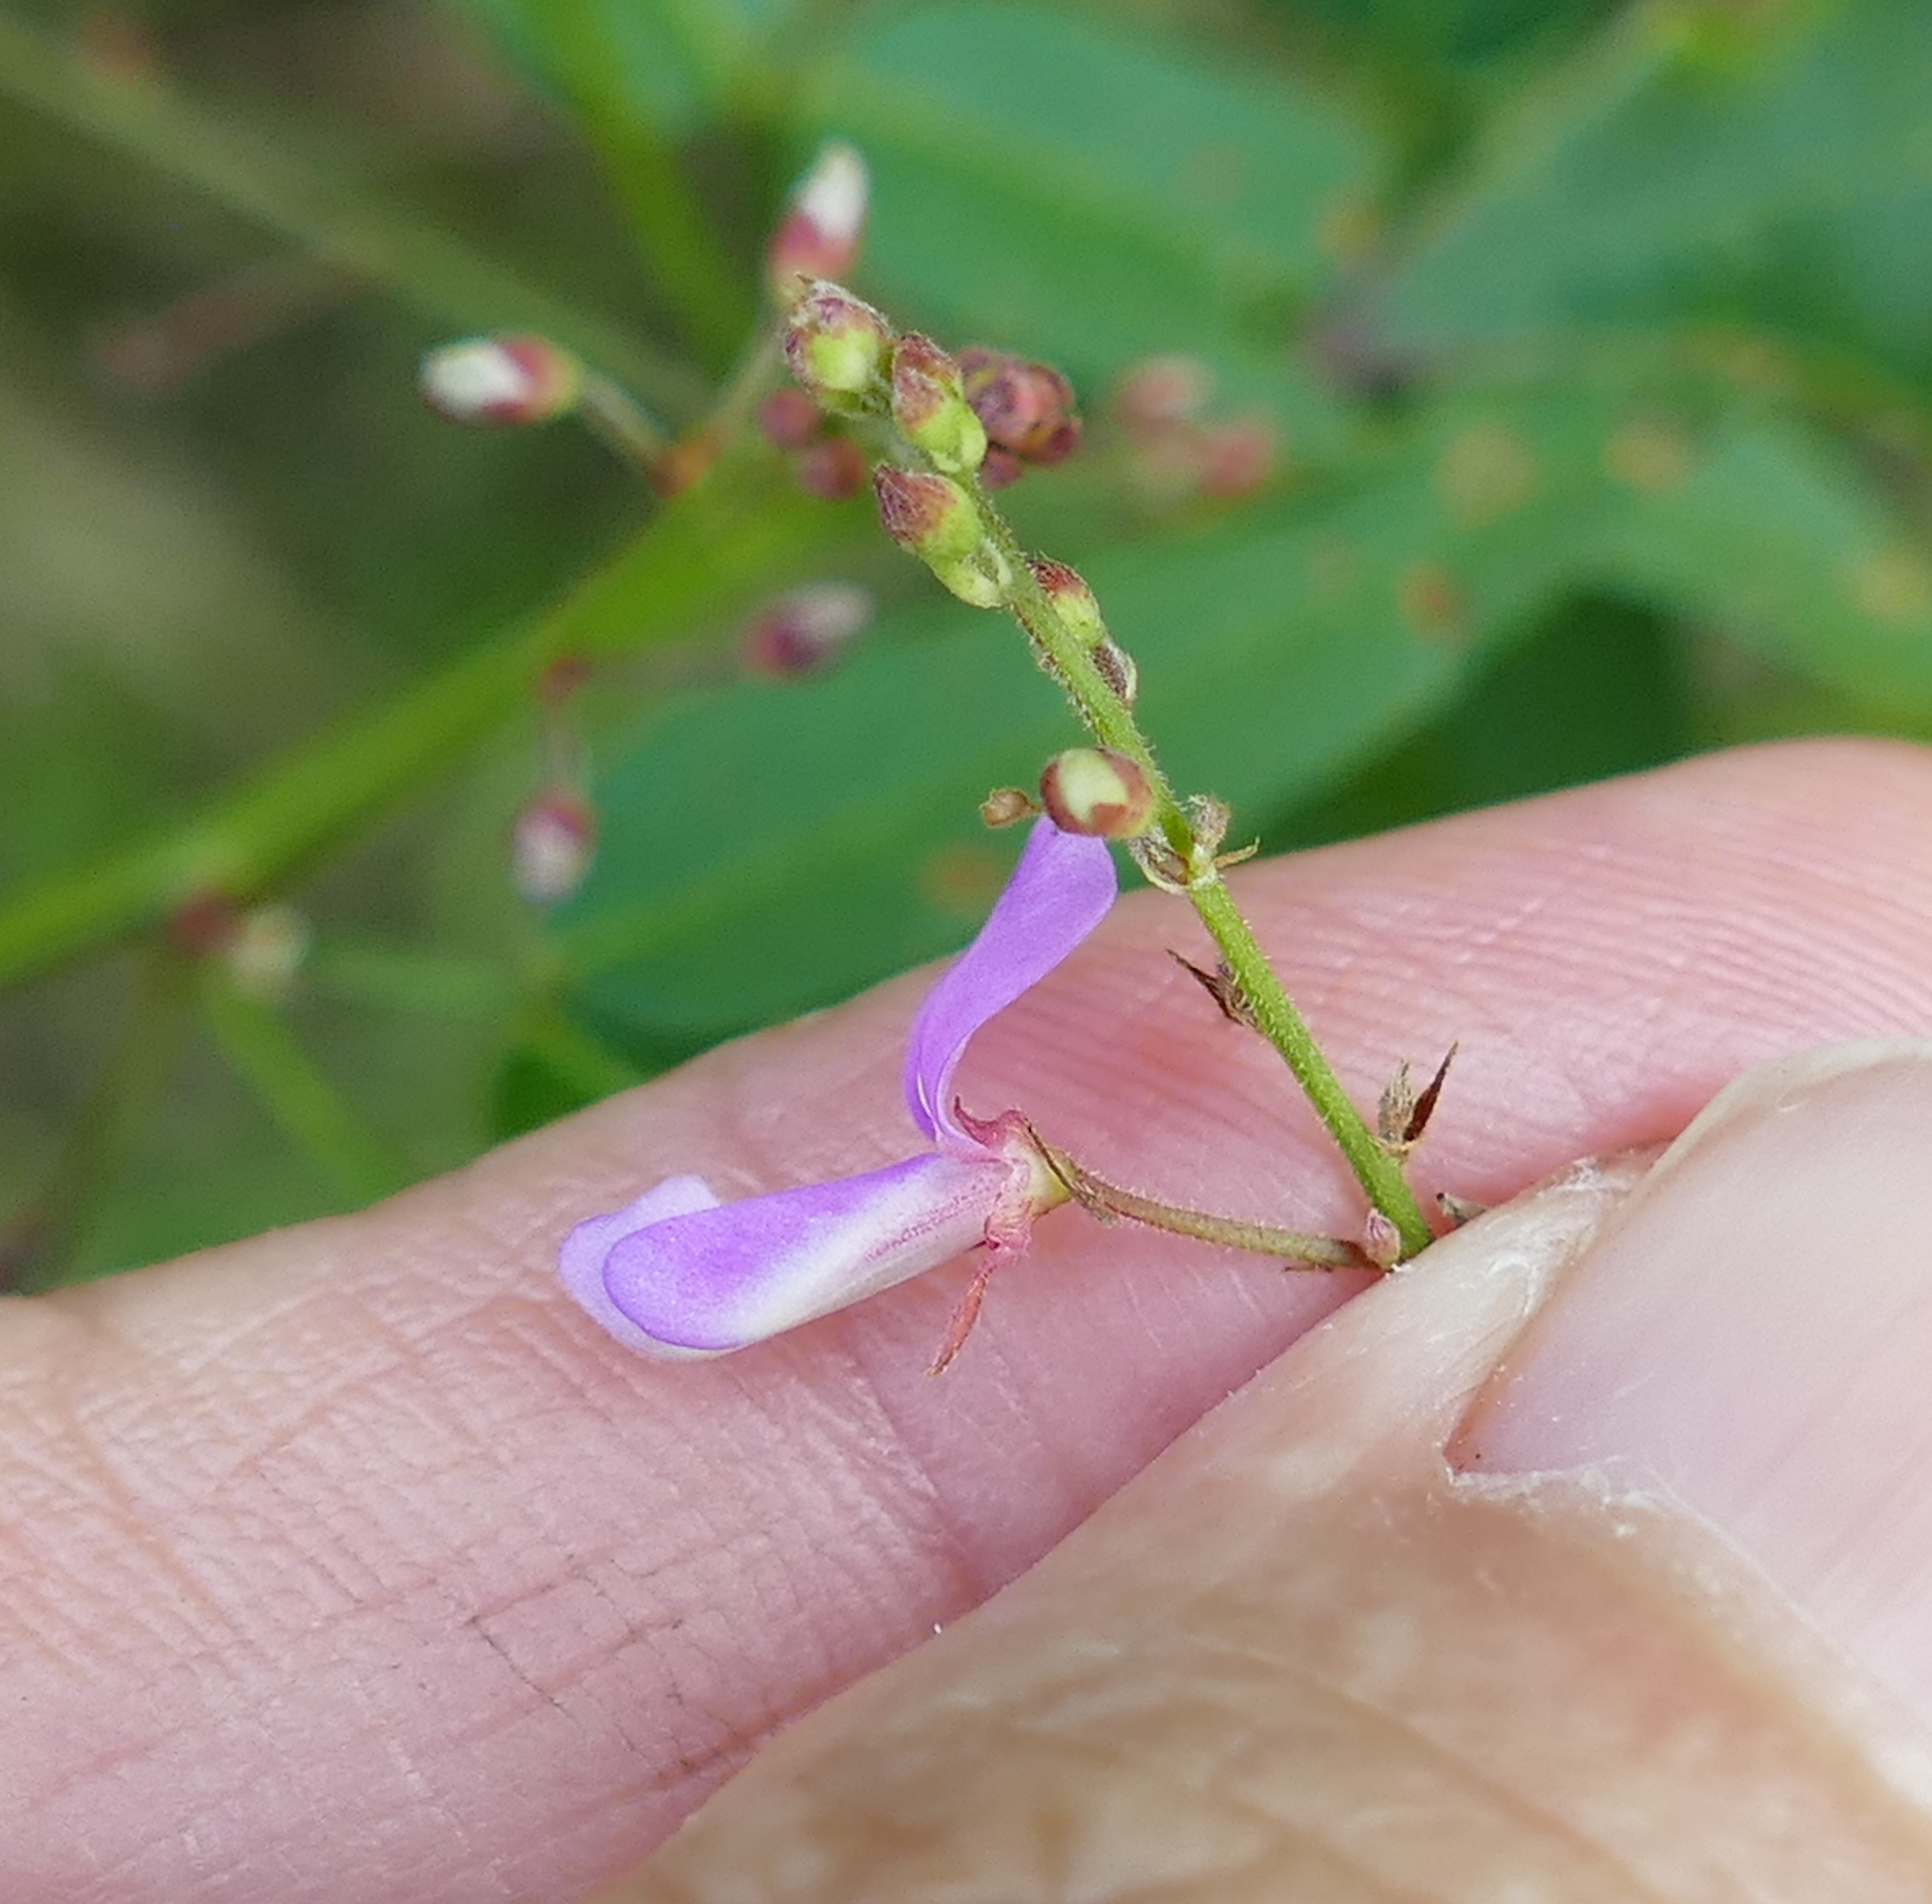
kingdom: Plantae
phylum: Tracheophyta
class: Magnoliopsida
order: Fabales
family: Fabaceae
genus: Desmodium
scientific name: Desmodium paniculatum
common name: Panicled tick-clover
